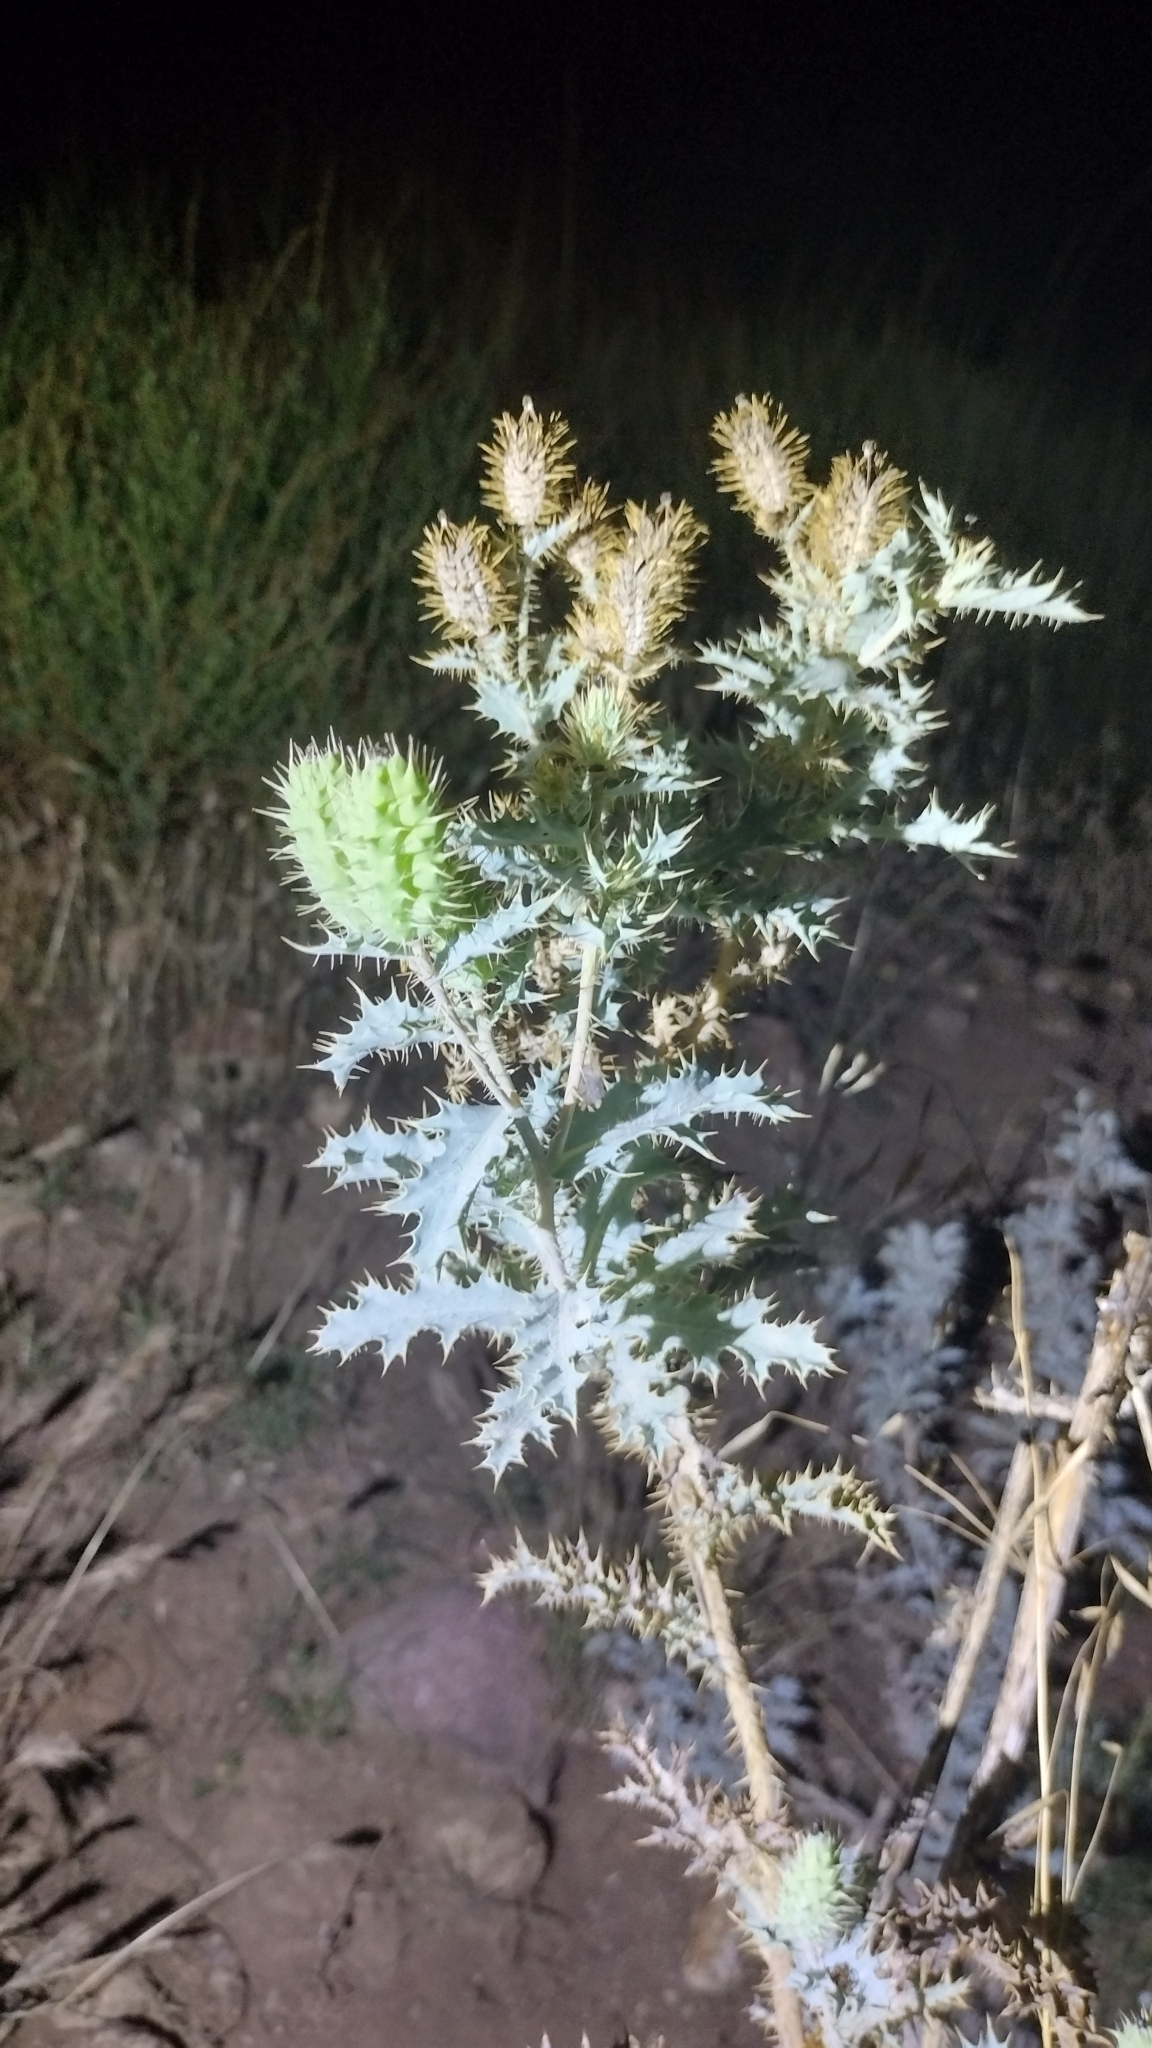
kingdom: Plantae
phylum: Tracheophyta
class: Magnoliopsida
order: Ranunculales
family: Papaveraceae
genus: Argemone
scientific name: Argemone munita
